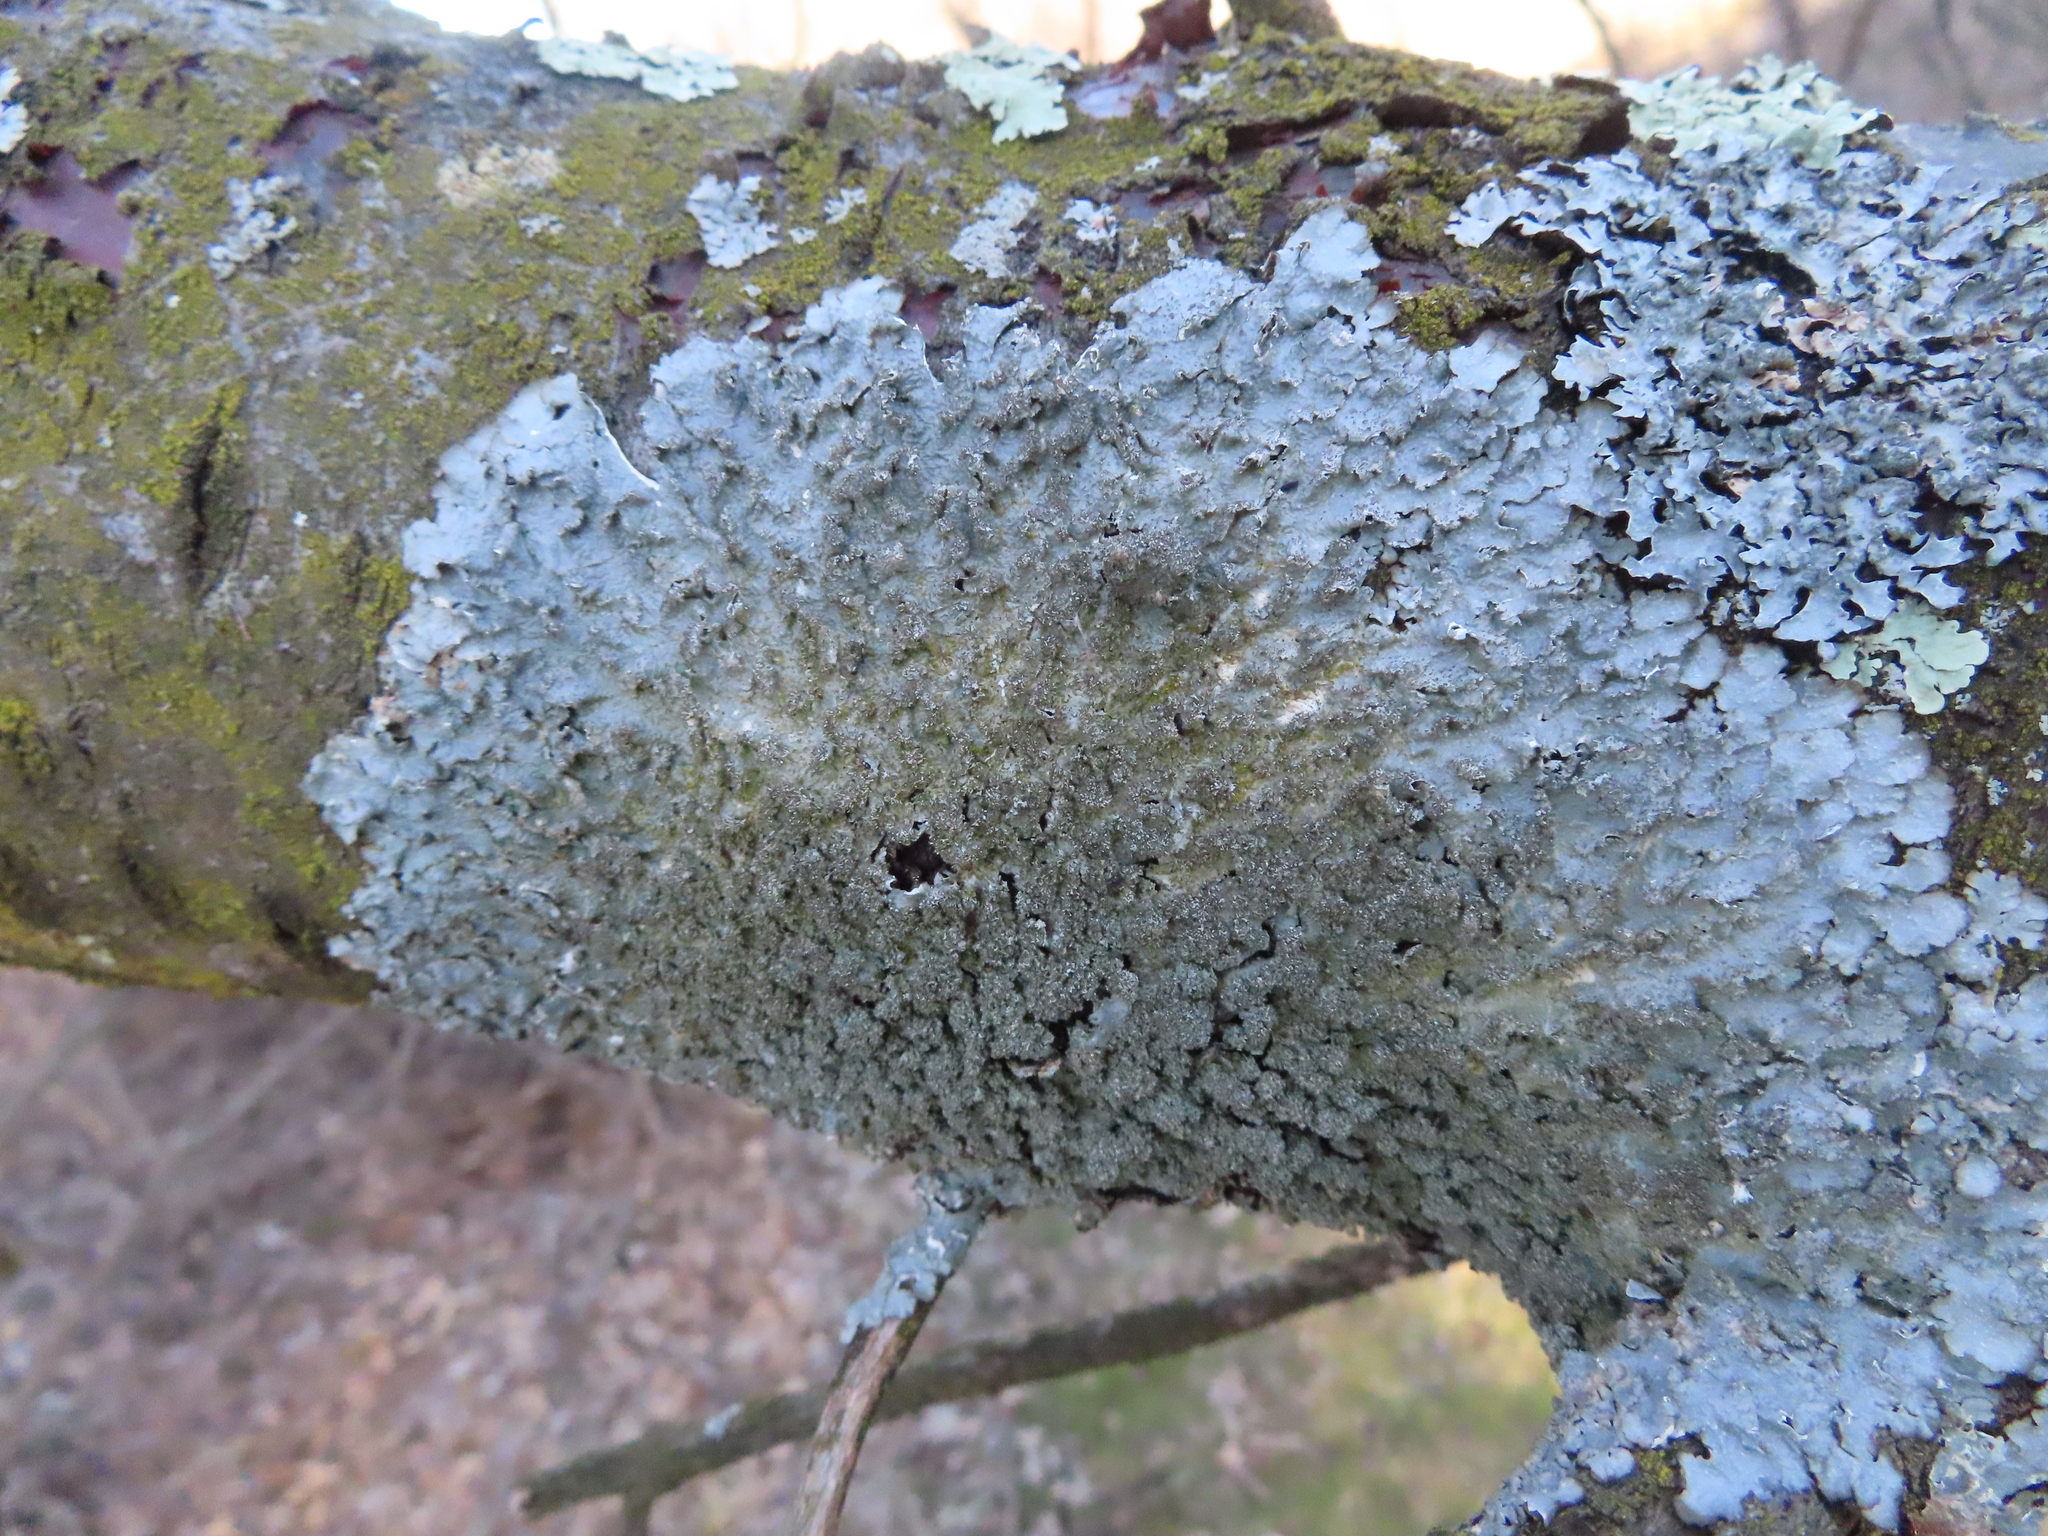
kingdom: Fungi
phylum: Ascomycota
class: Lecanoromycetes
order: Lecanorales
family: Parmeliaceae
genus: Punctelia
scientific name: Punctelia rudecta
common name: Rough speckled shield lichen
